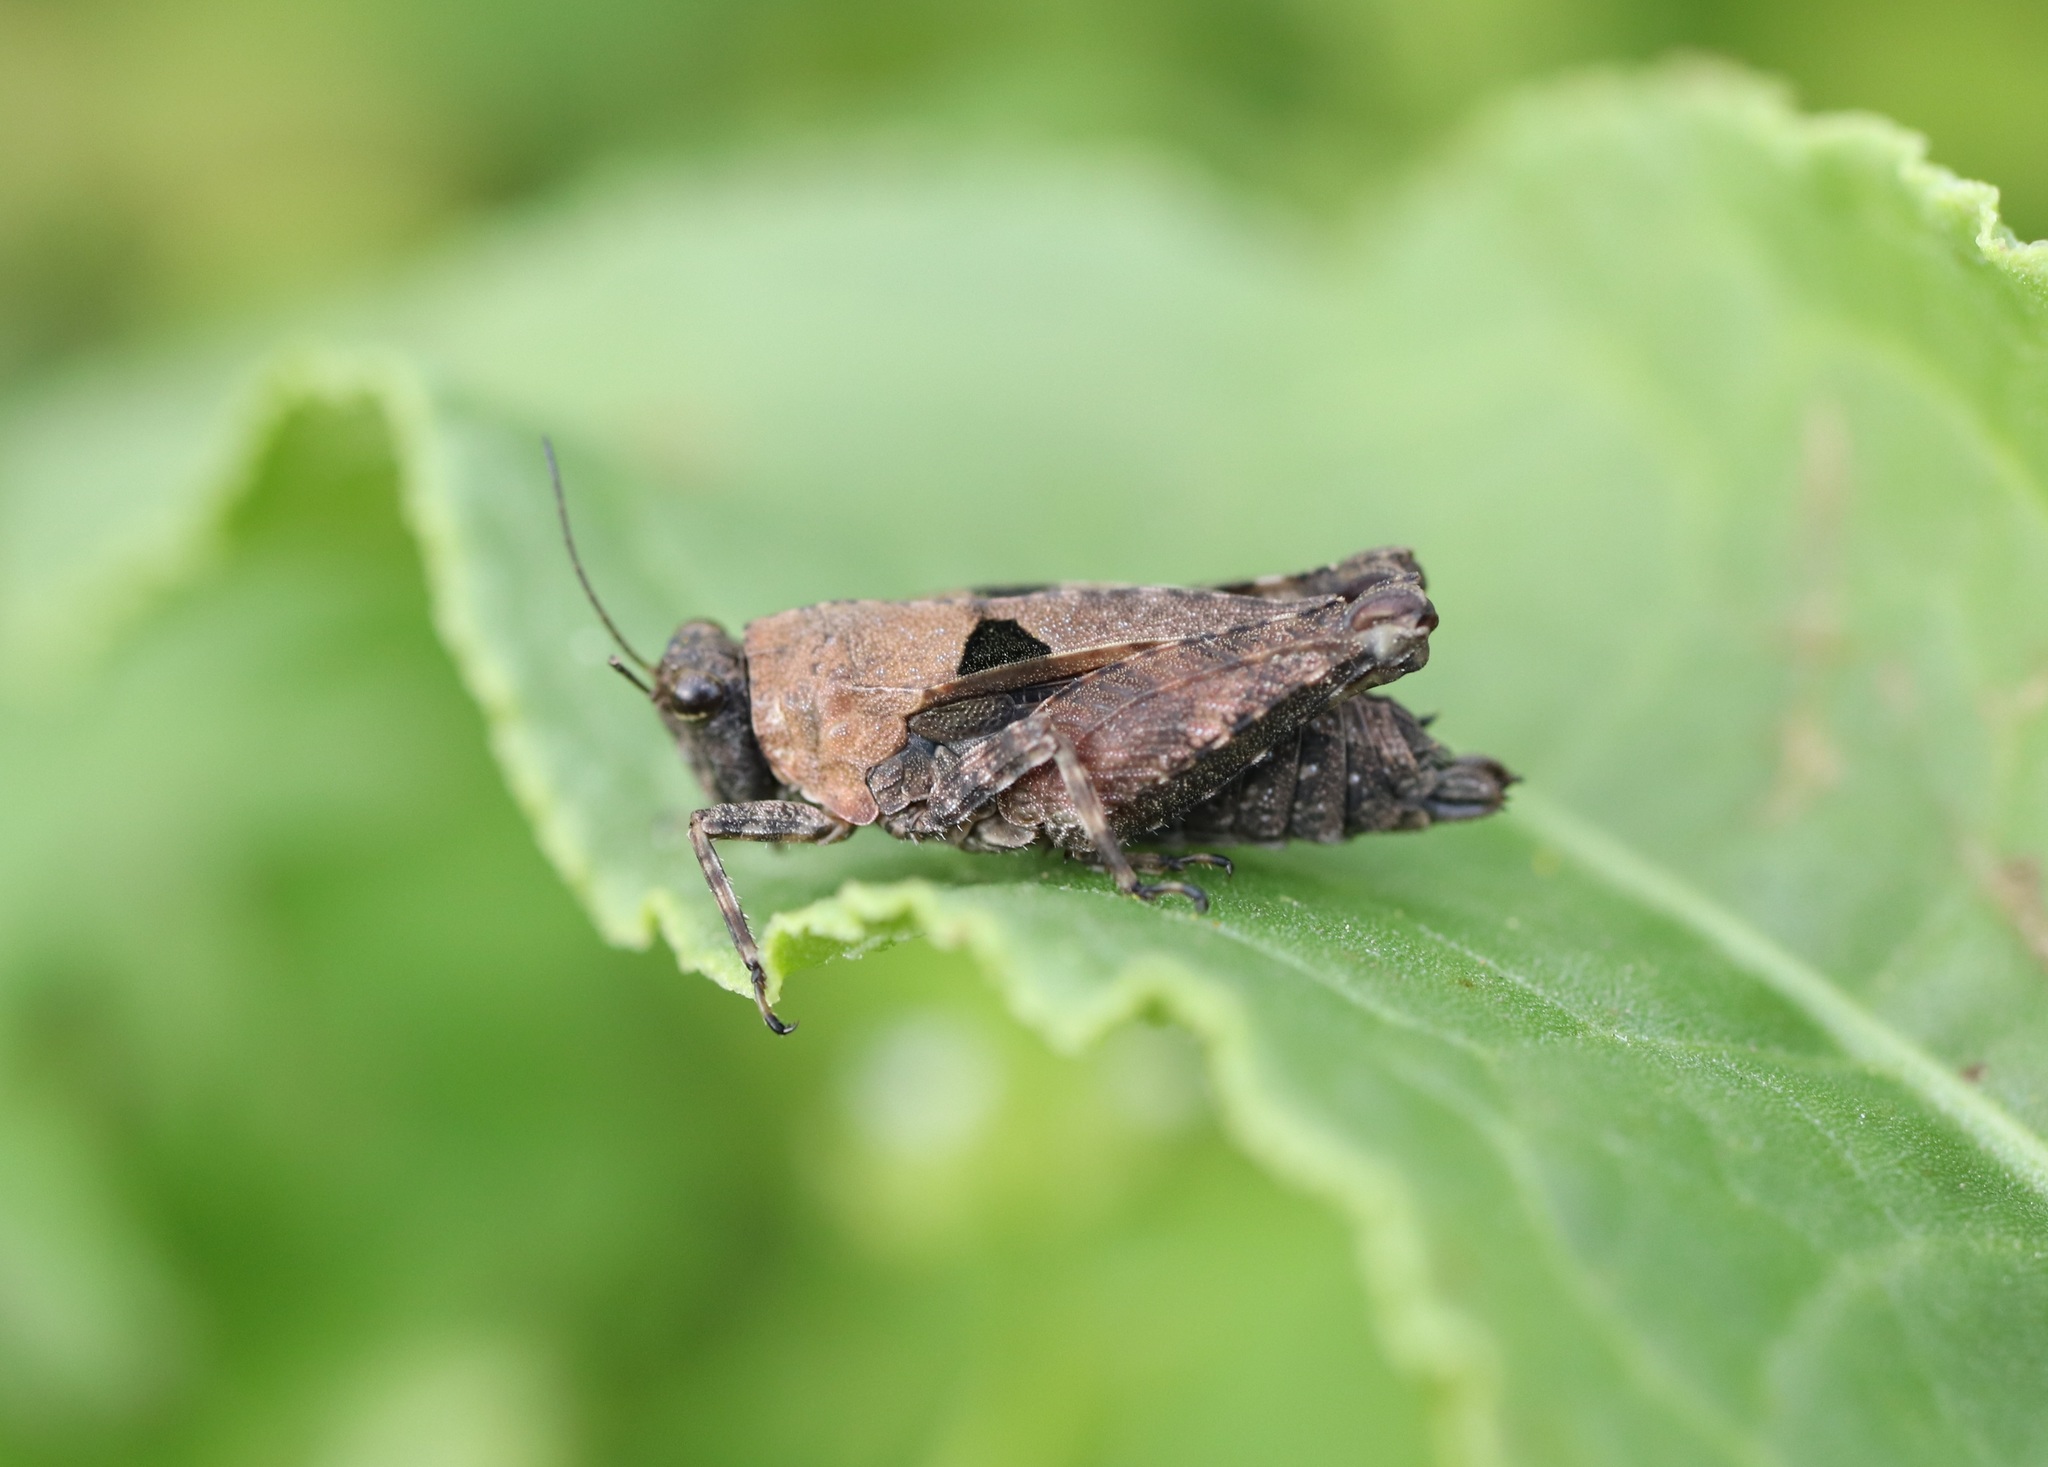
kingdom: Animalia
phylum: Arthropoda
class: Insecta
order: Orthoptera
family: Tetrigidae
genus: Tetrix
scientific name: Tetrix japonica
